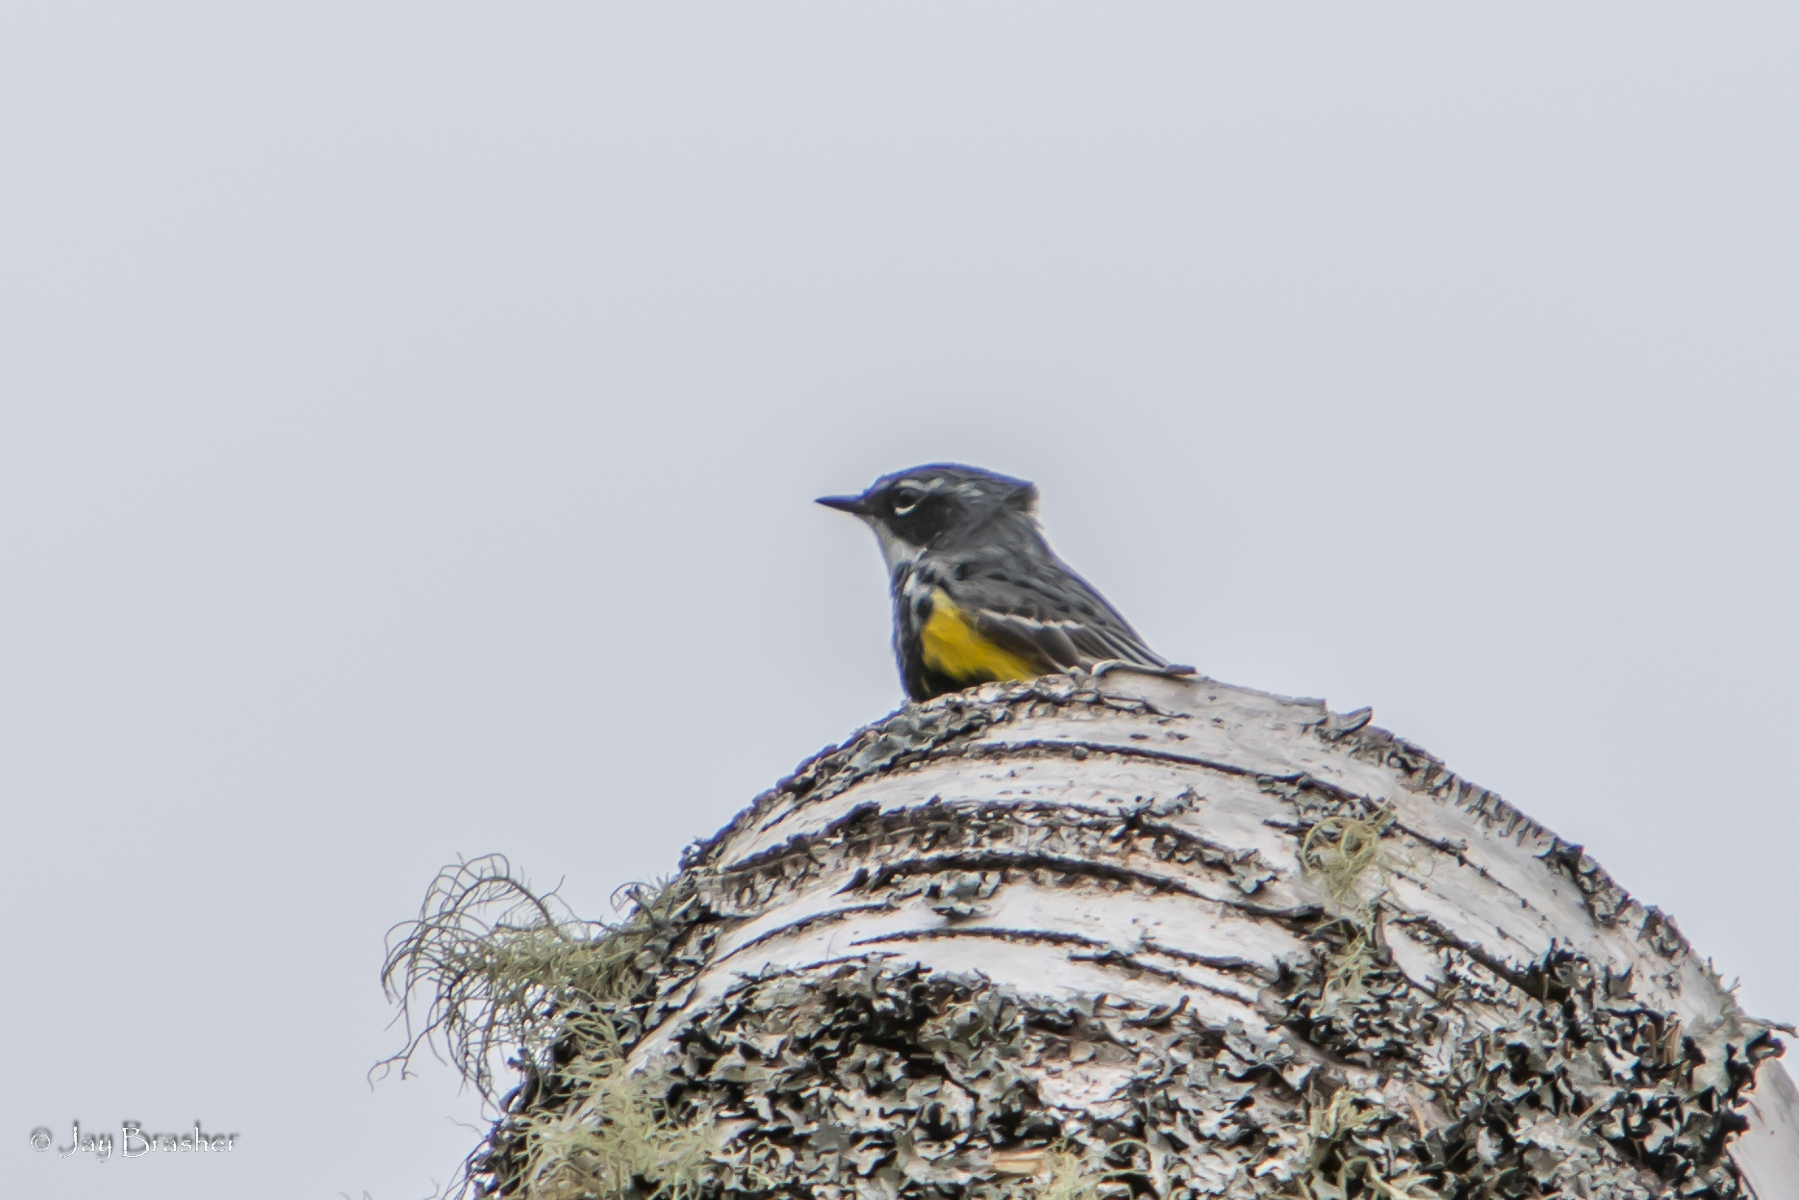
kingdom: Animalia
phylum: Chordata
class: Aves
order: Passeriformes
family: Parulidae
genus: Setophaga
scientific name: Setophaga coronata
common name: Myrtle warbler
